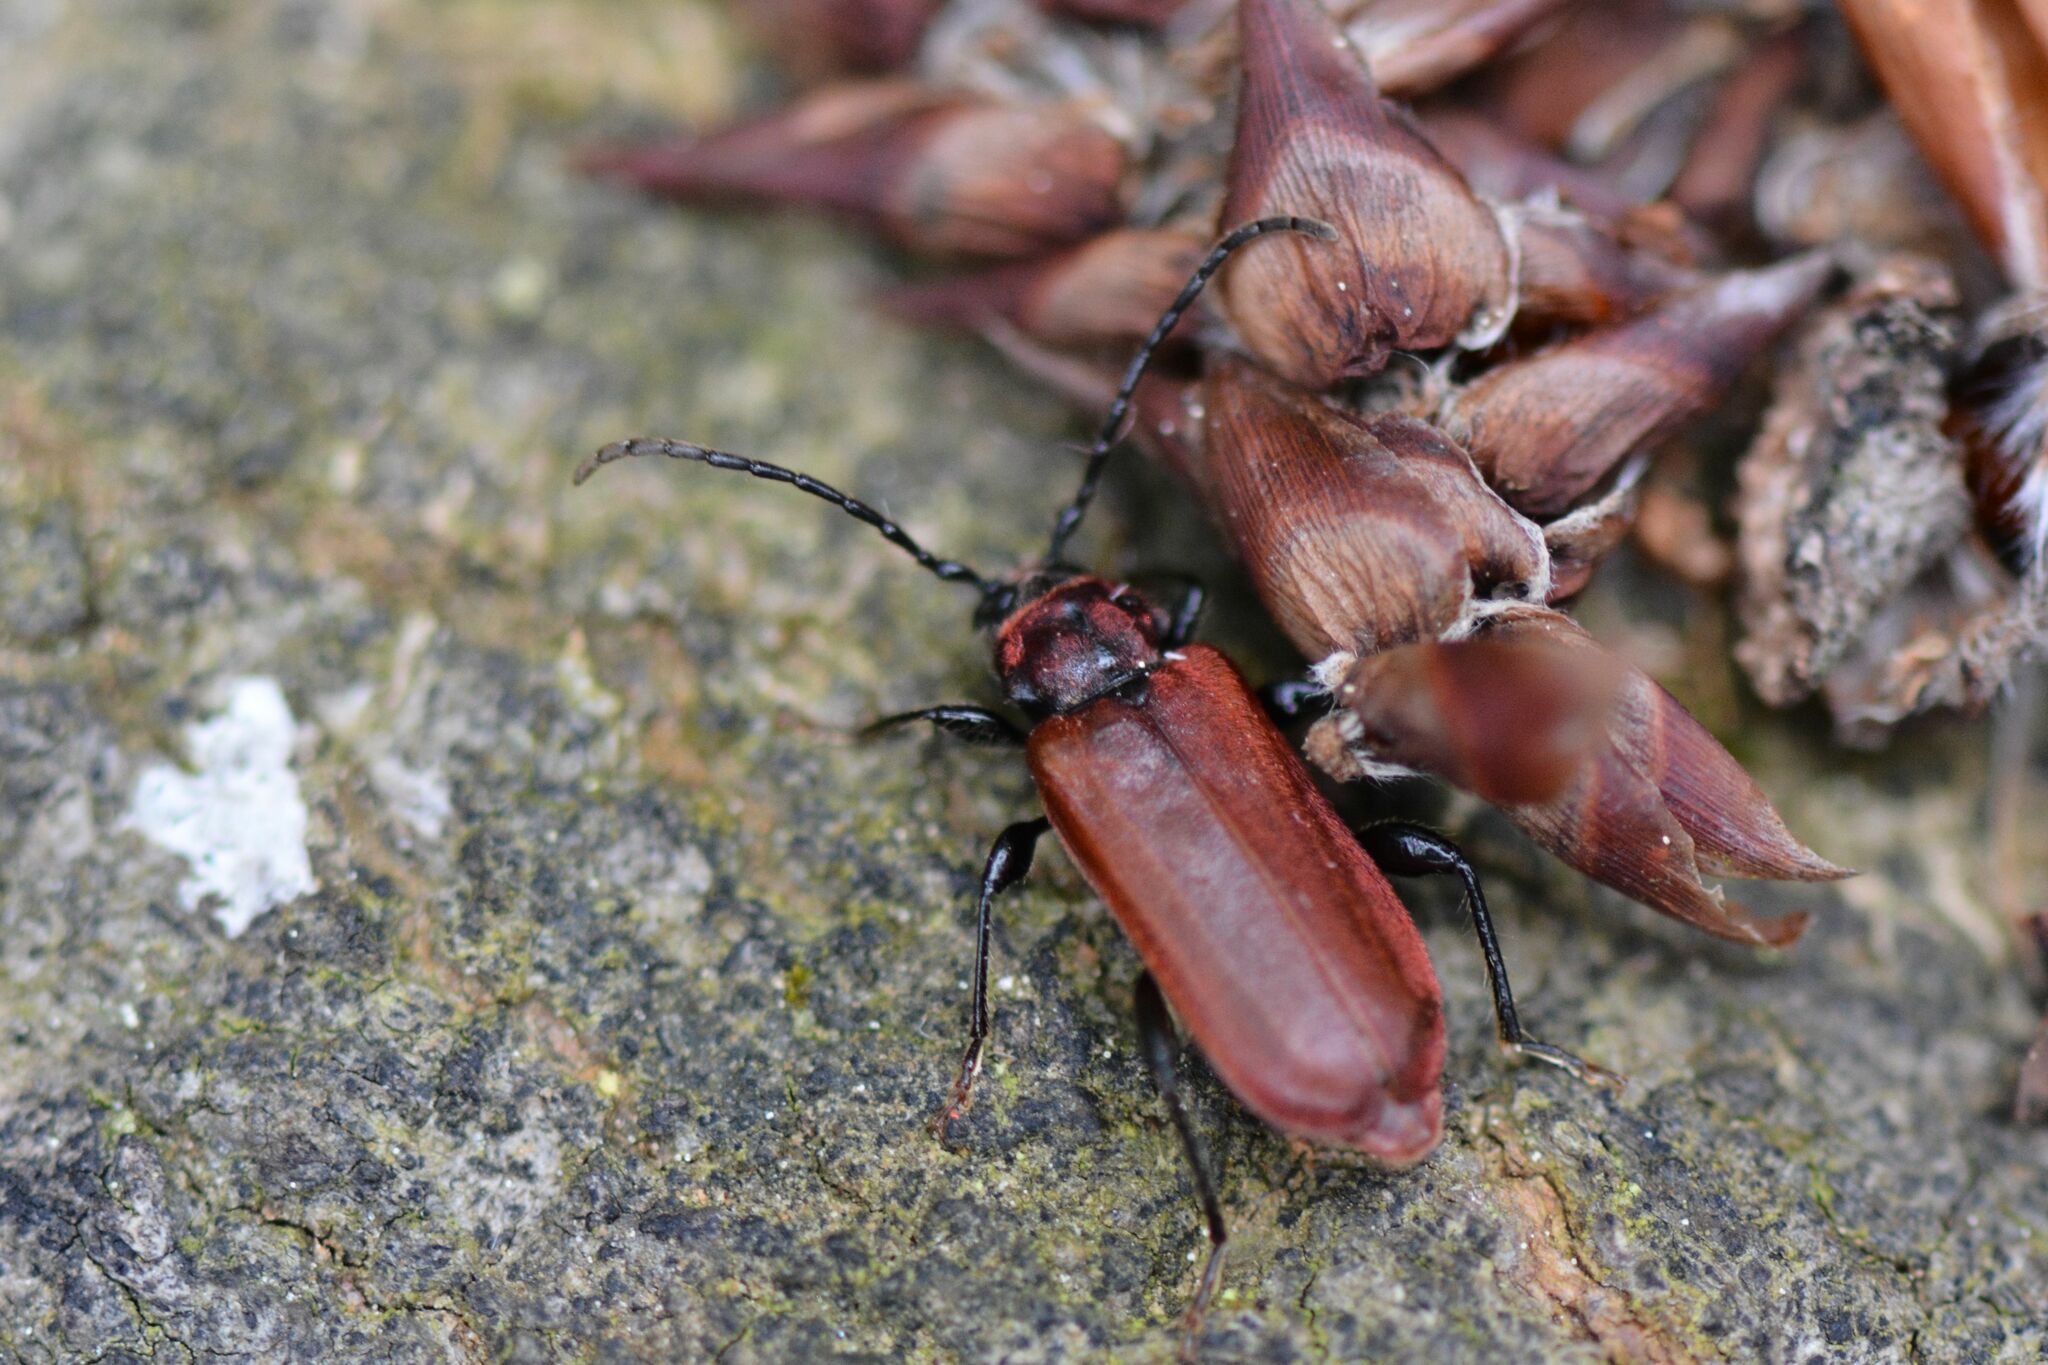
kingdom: Animalia
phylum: Arthropoda
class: Insecta
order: Coleoptera
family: Cerambycidae
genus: Pyrrhidium
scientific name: Pyrrhidium sanguineum
